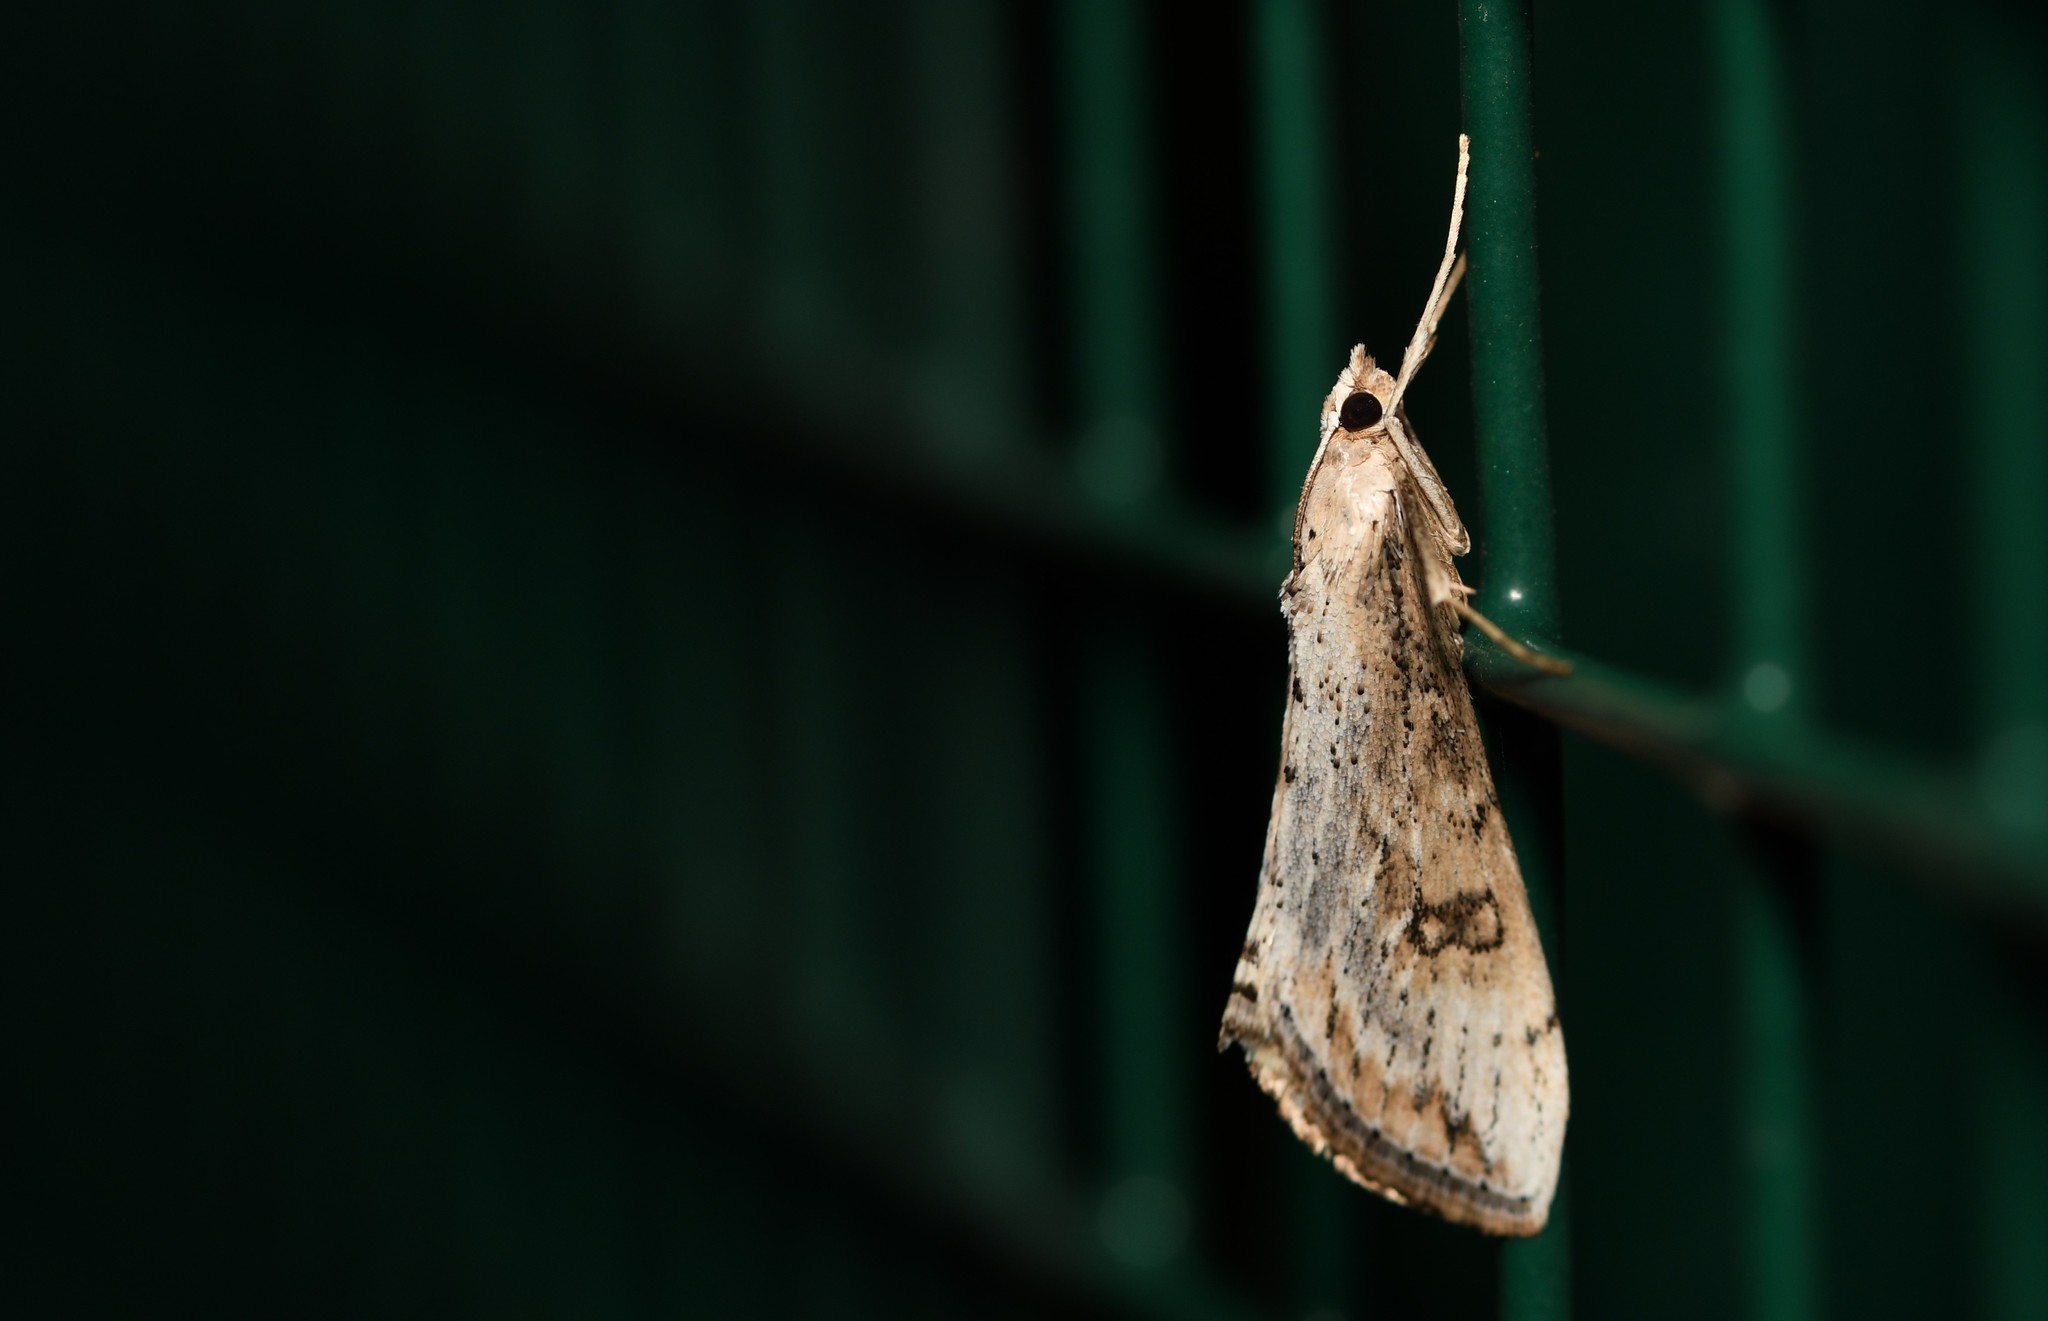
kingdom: Animalia
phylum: Arthropoda
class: Insecta
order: Lepidoptera
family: Crambidae
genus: Evergestis
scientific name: Evergestis isatidalis
